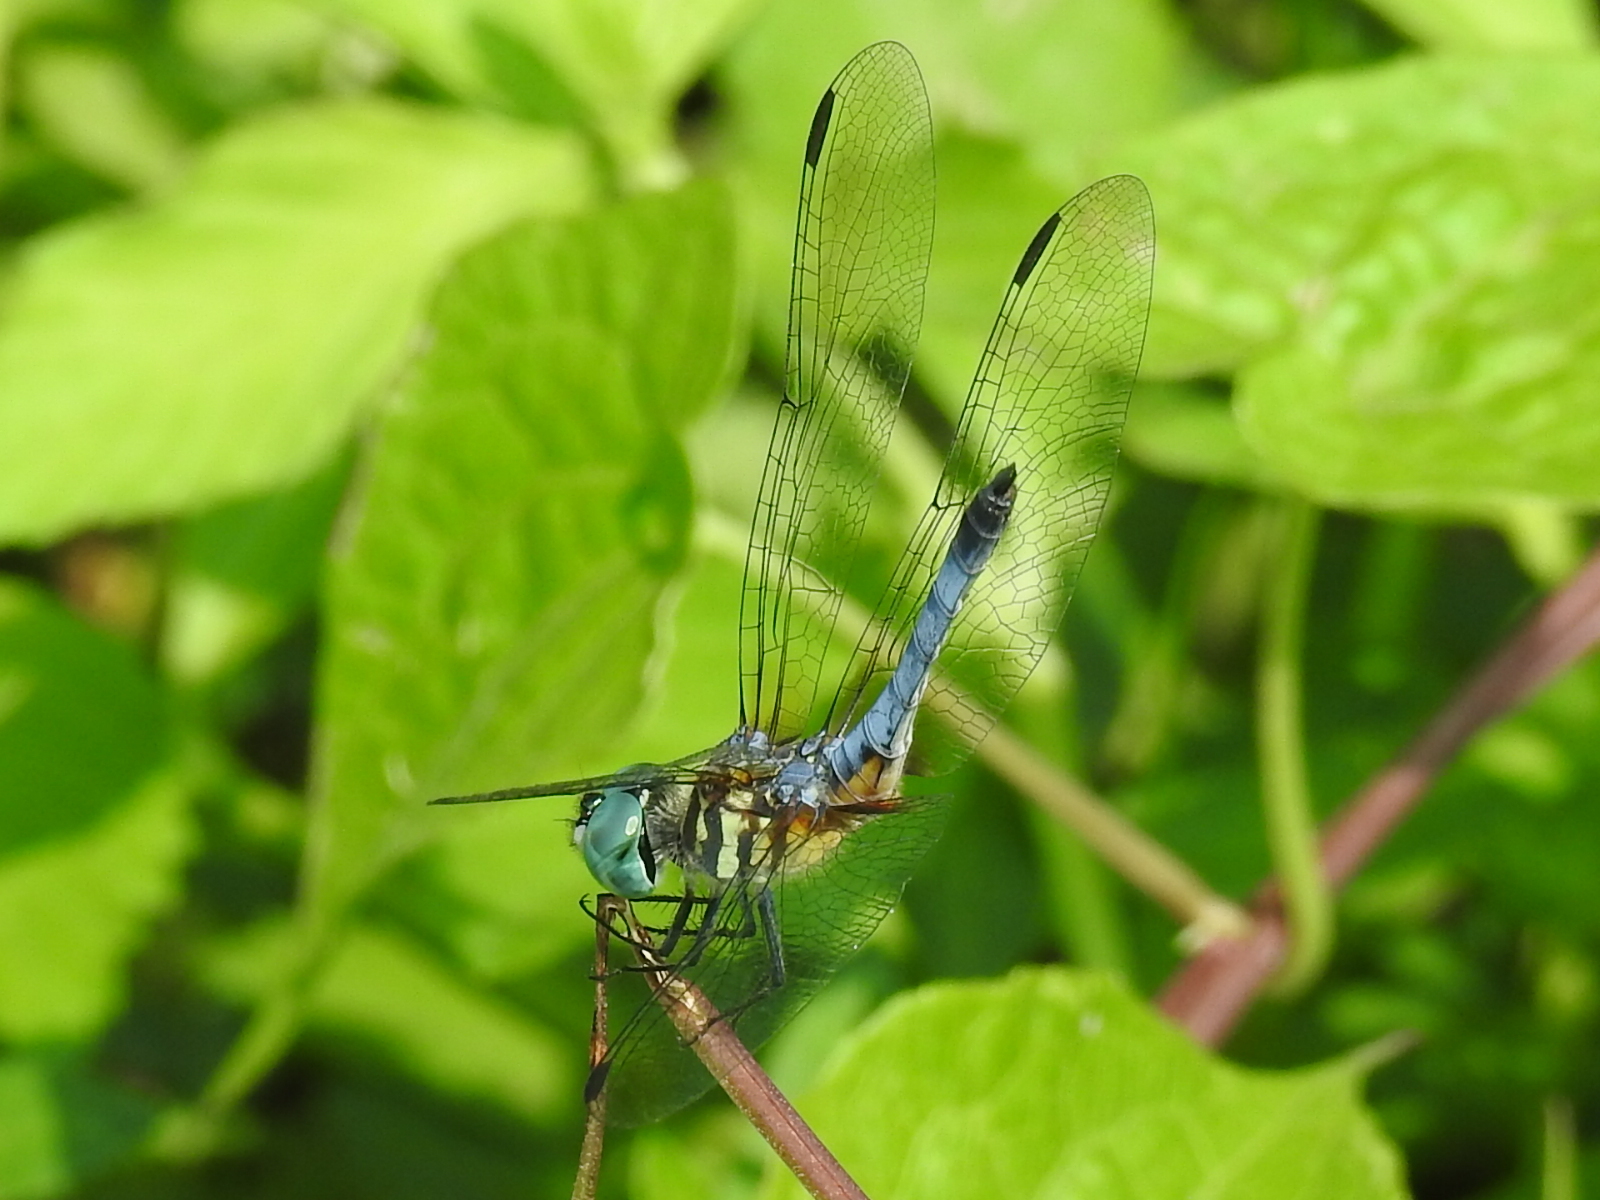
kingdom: Animalia
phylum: Arthropoda
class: Insecta
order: Odonata
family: Libellulidae
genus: Pachydiplax
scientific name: Pachydiplax longipennis
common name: Blue dasher
